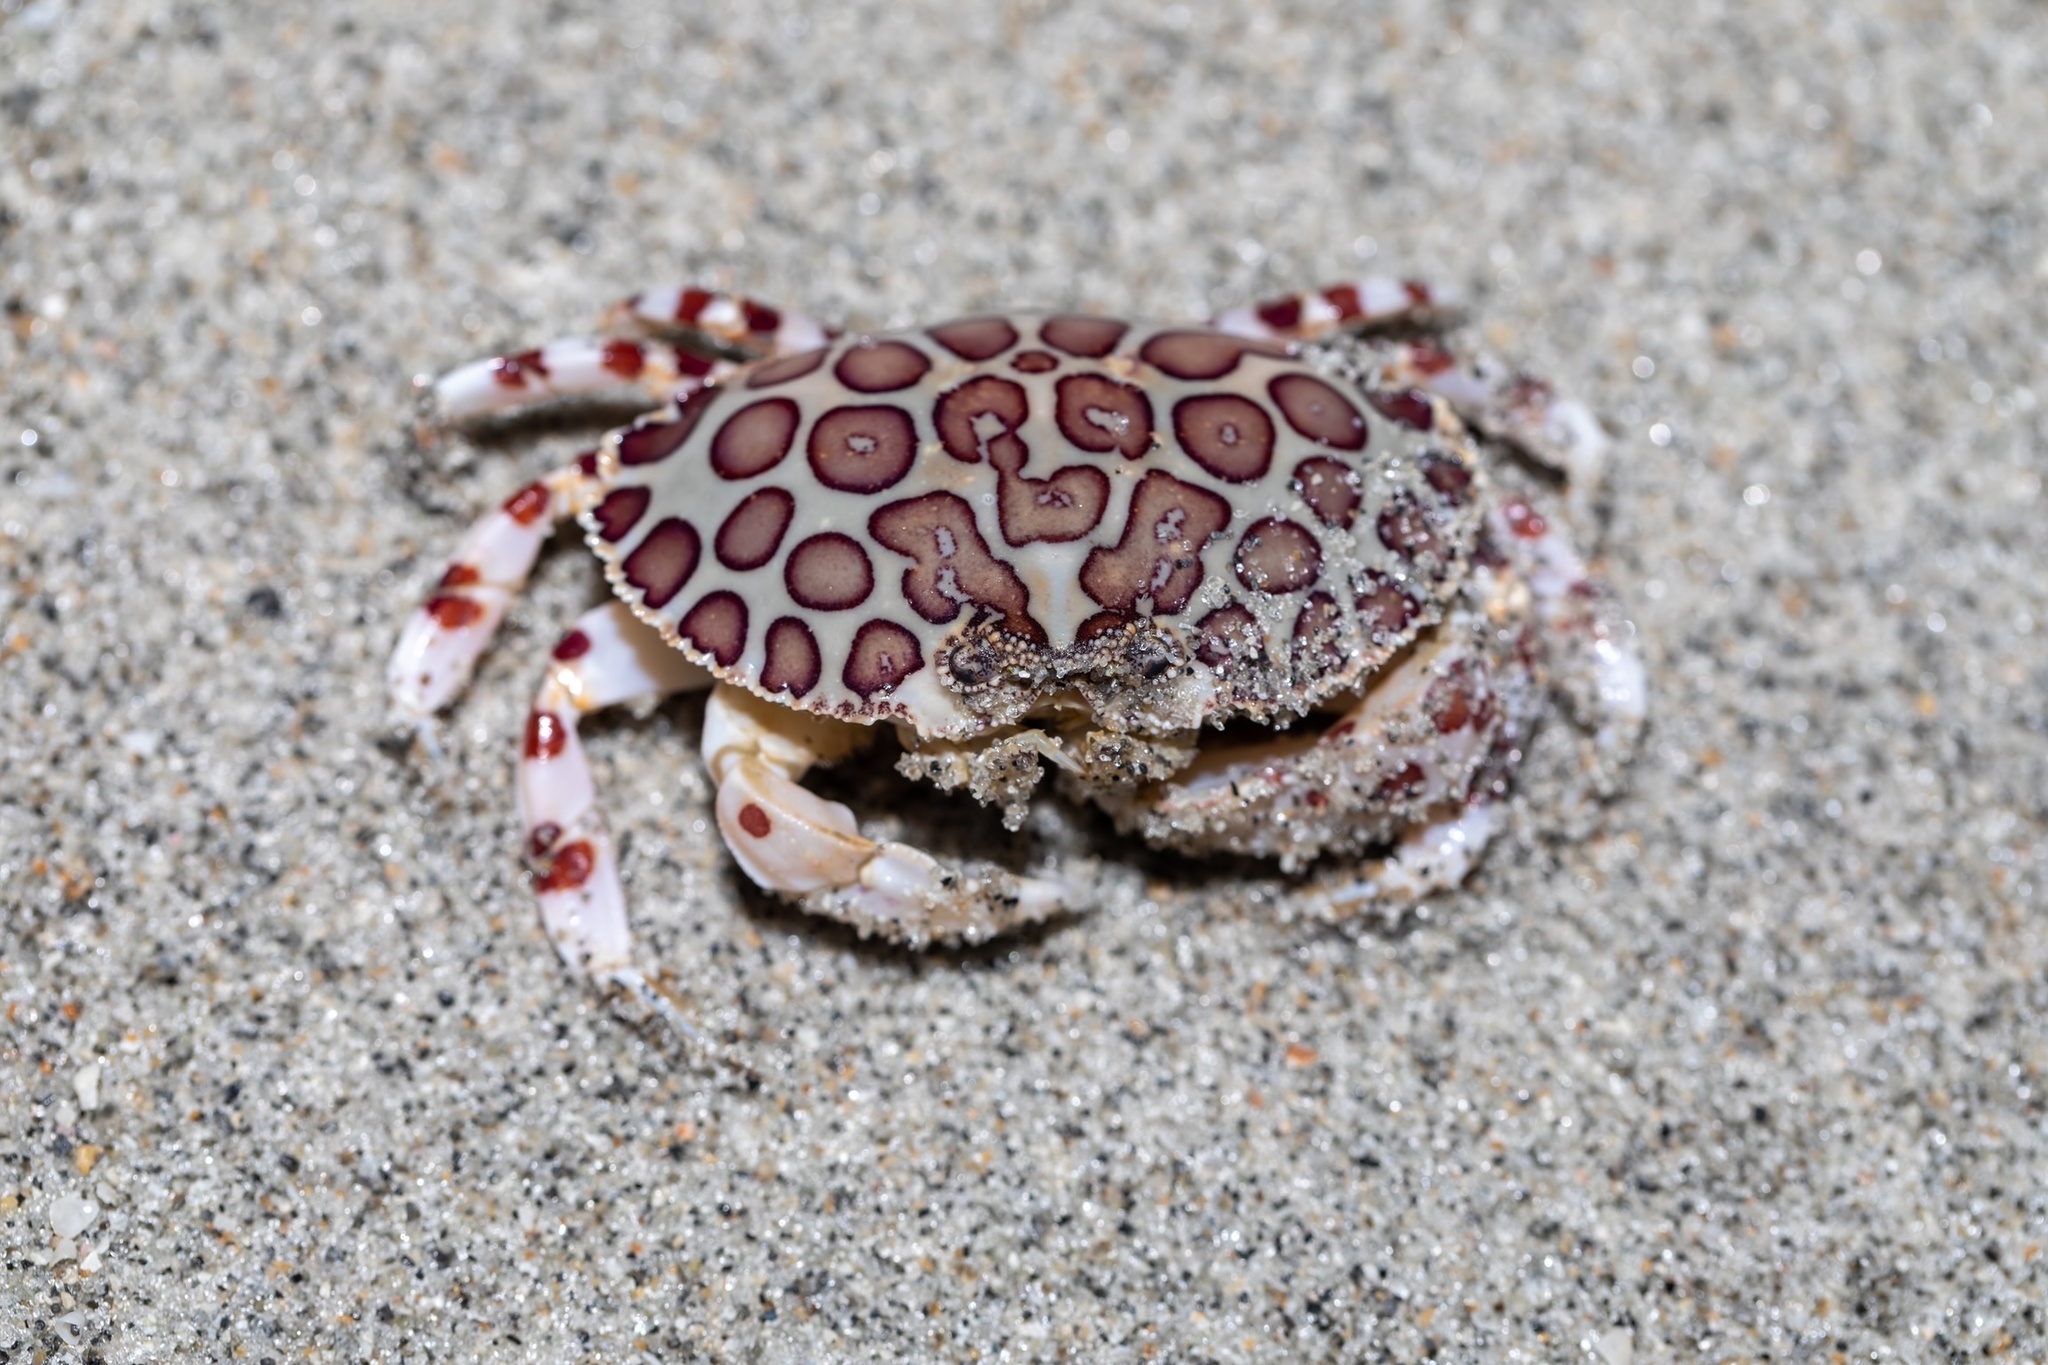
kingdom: Animalia
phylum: Arthropoda
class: Malacostraca
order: Decapoda
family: Aethridae
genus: Hepatus
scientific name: Hepatus epheliticus
